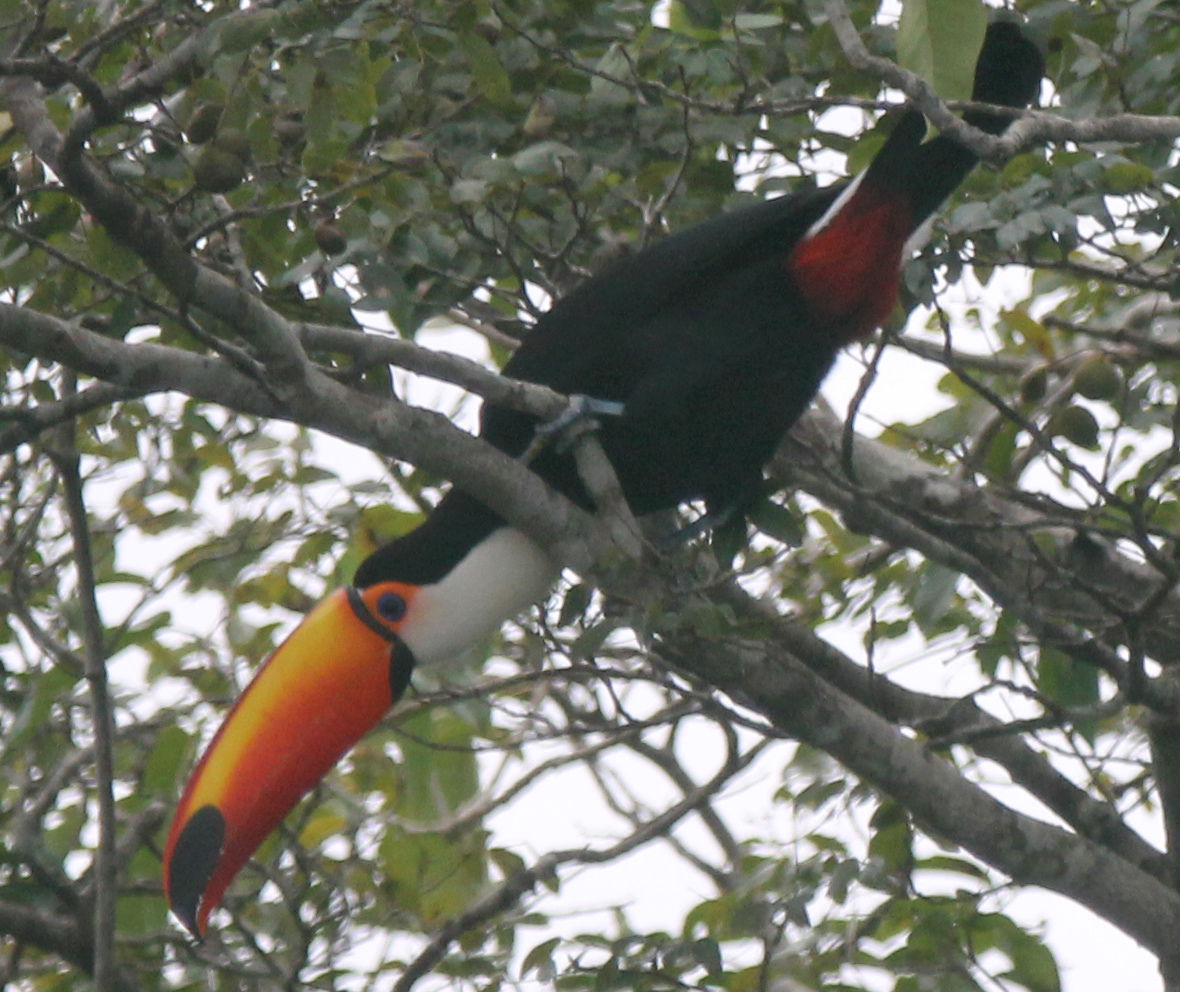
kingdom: Animalia
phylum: Chordata
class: Aves
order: Piciformes
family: Ramphastidae
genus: Ramphastos
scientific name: Ramphastos toco
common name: Toco toucan
